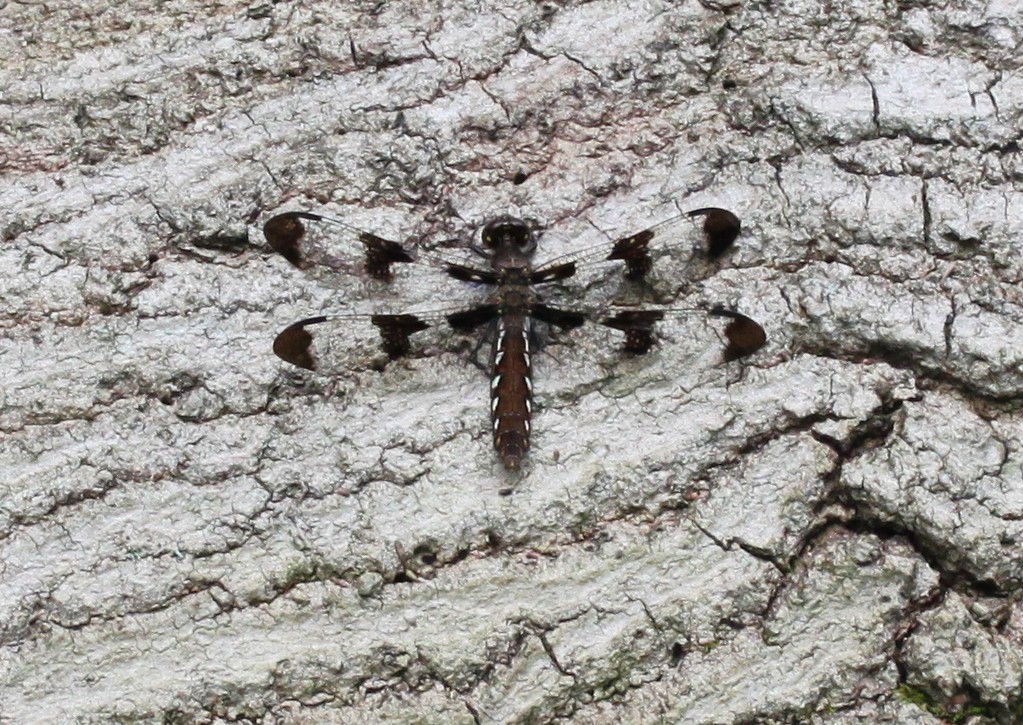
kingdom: Animalia
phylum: Arthropoda
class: Insecta
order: Odonata
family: Libellulidae
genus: Plathemis
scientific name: Plathemis lydia
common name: Common whitetail
